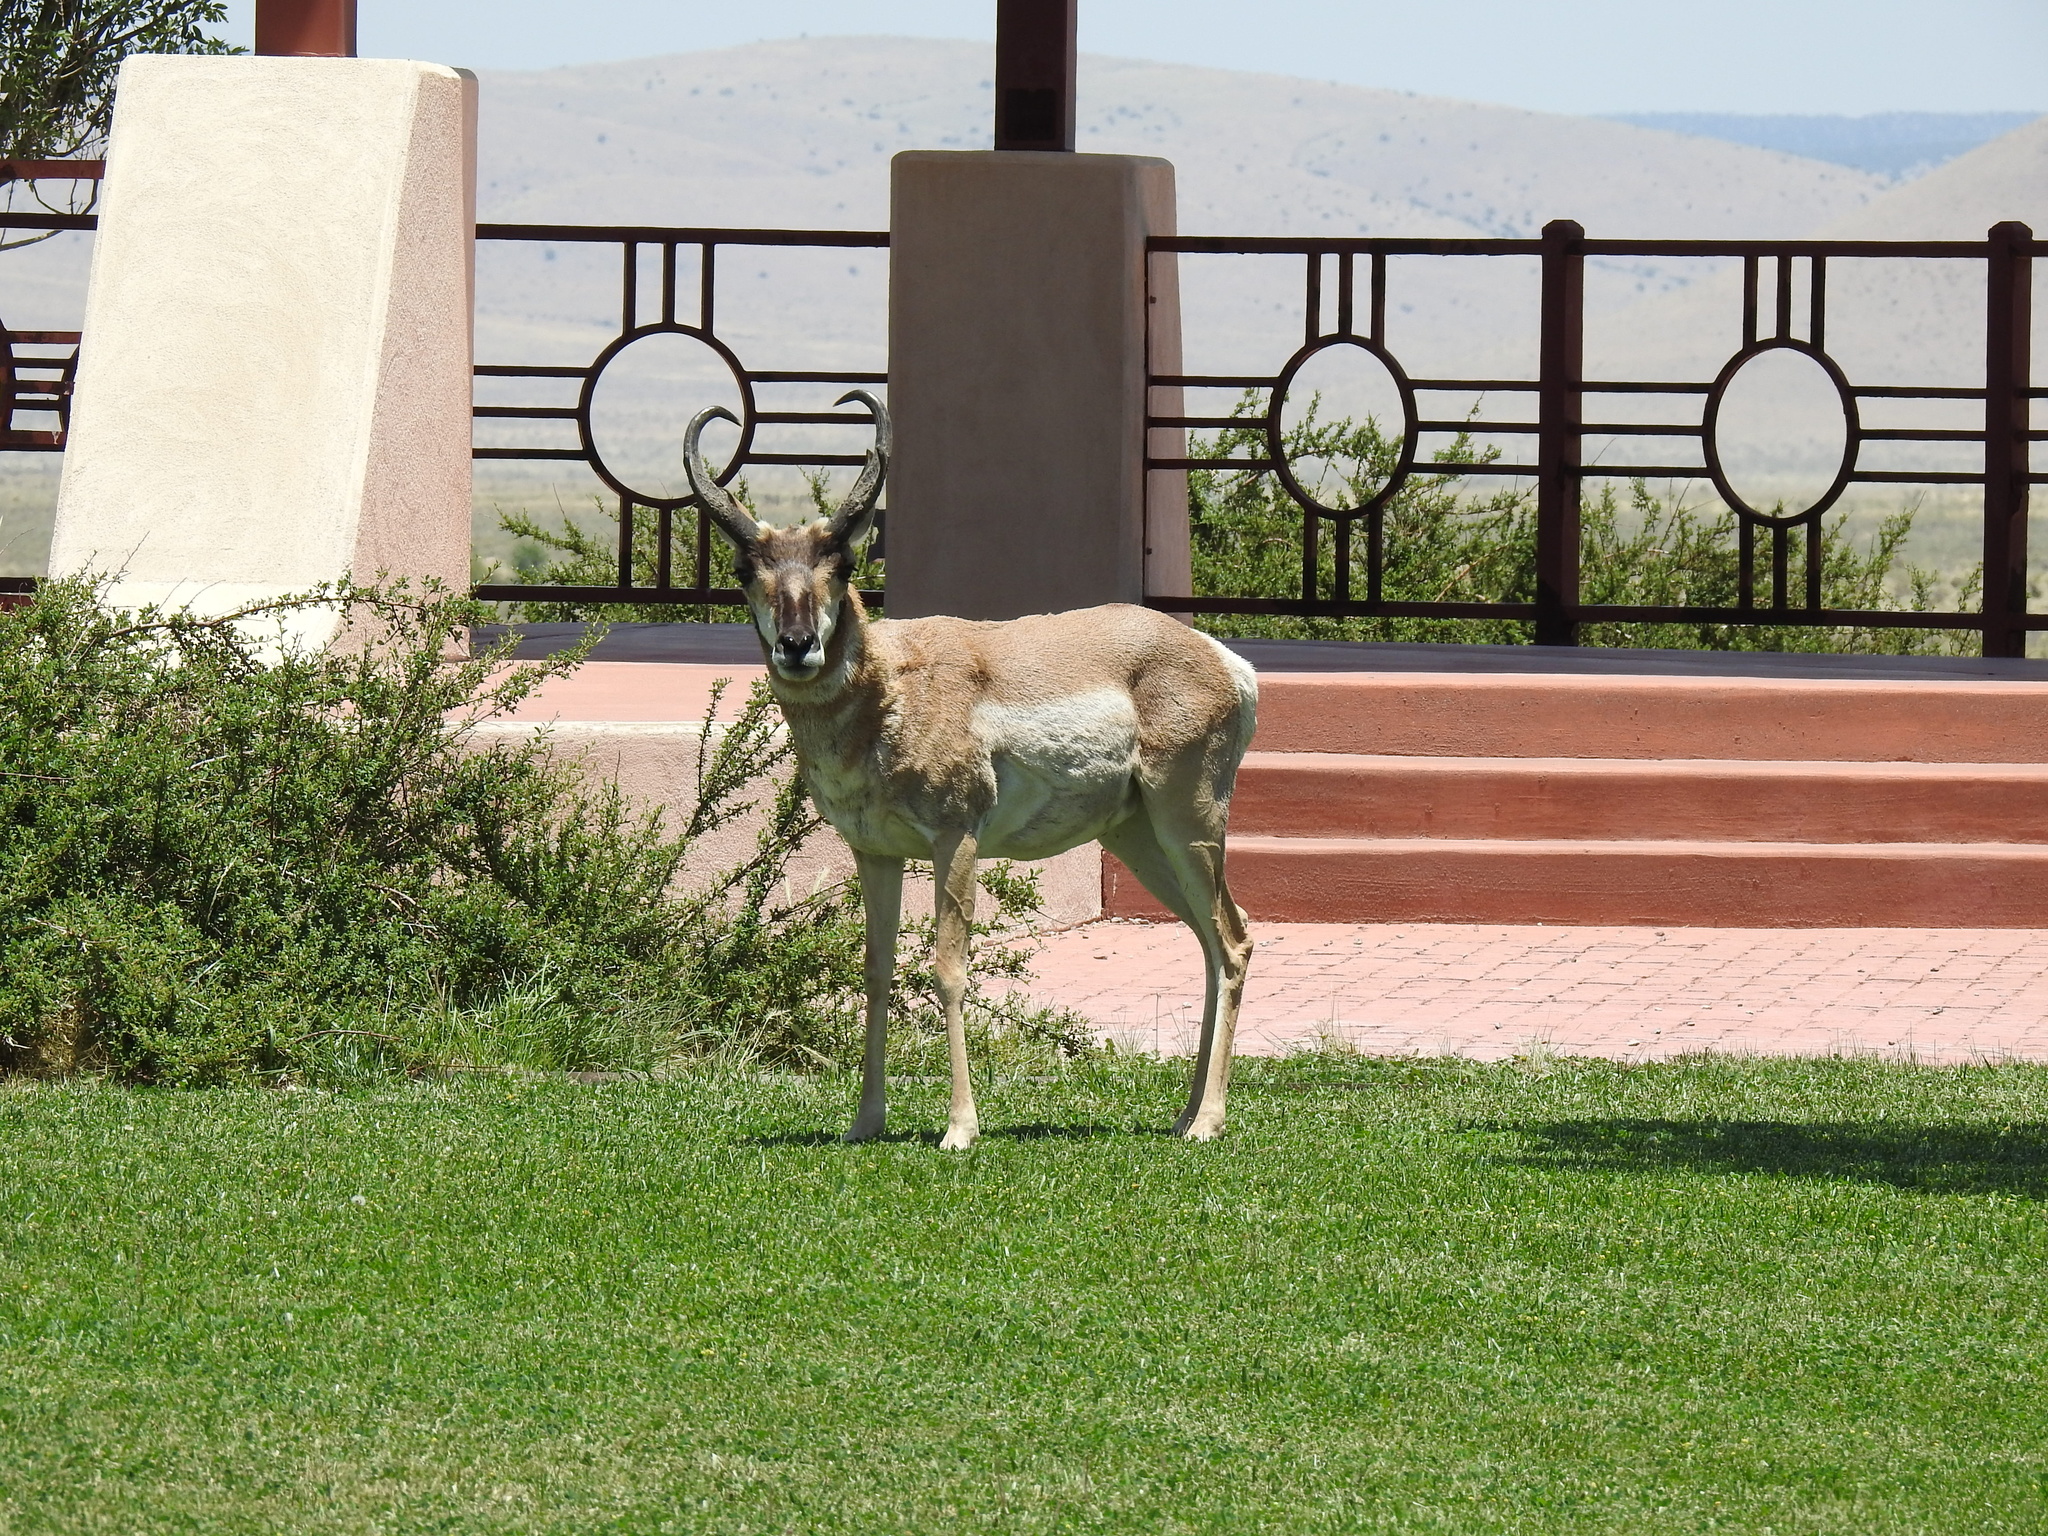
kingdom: Animalia
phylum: Chordata
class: Mammalia
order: Artiodactyla
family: Antilocapridae
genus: Antilocapra
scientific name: Antilocapra americana
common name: Pronghorn
